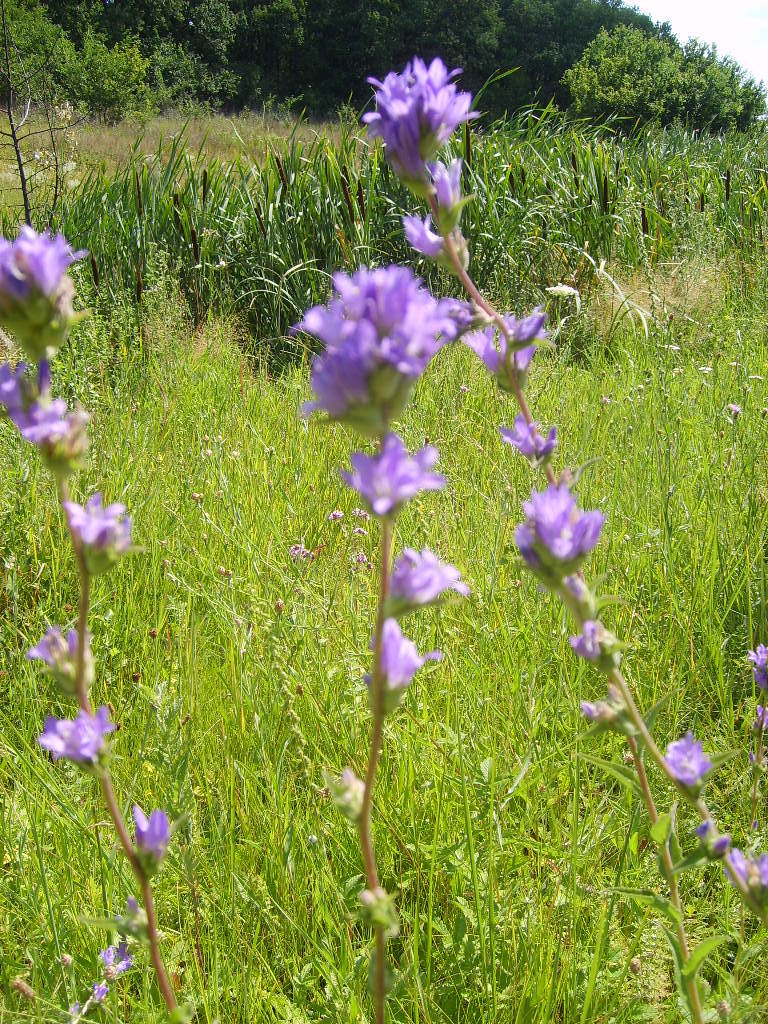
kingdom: Plantae
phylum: Tracheophyta
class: Magnoliopsida
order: Asterales
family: Campanulaceae
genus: Campanula
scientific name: Campanula glomerata
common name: Clustered bellflower
